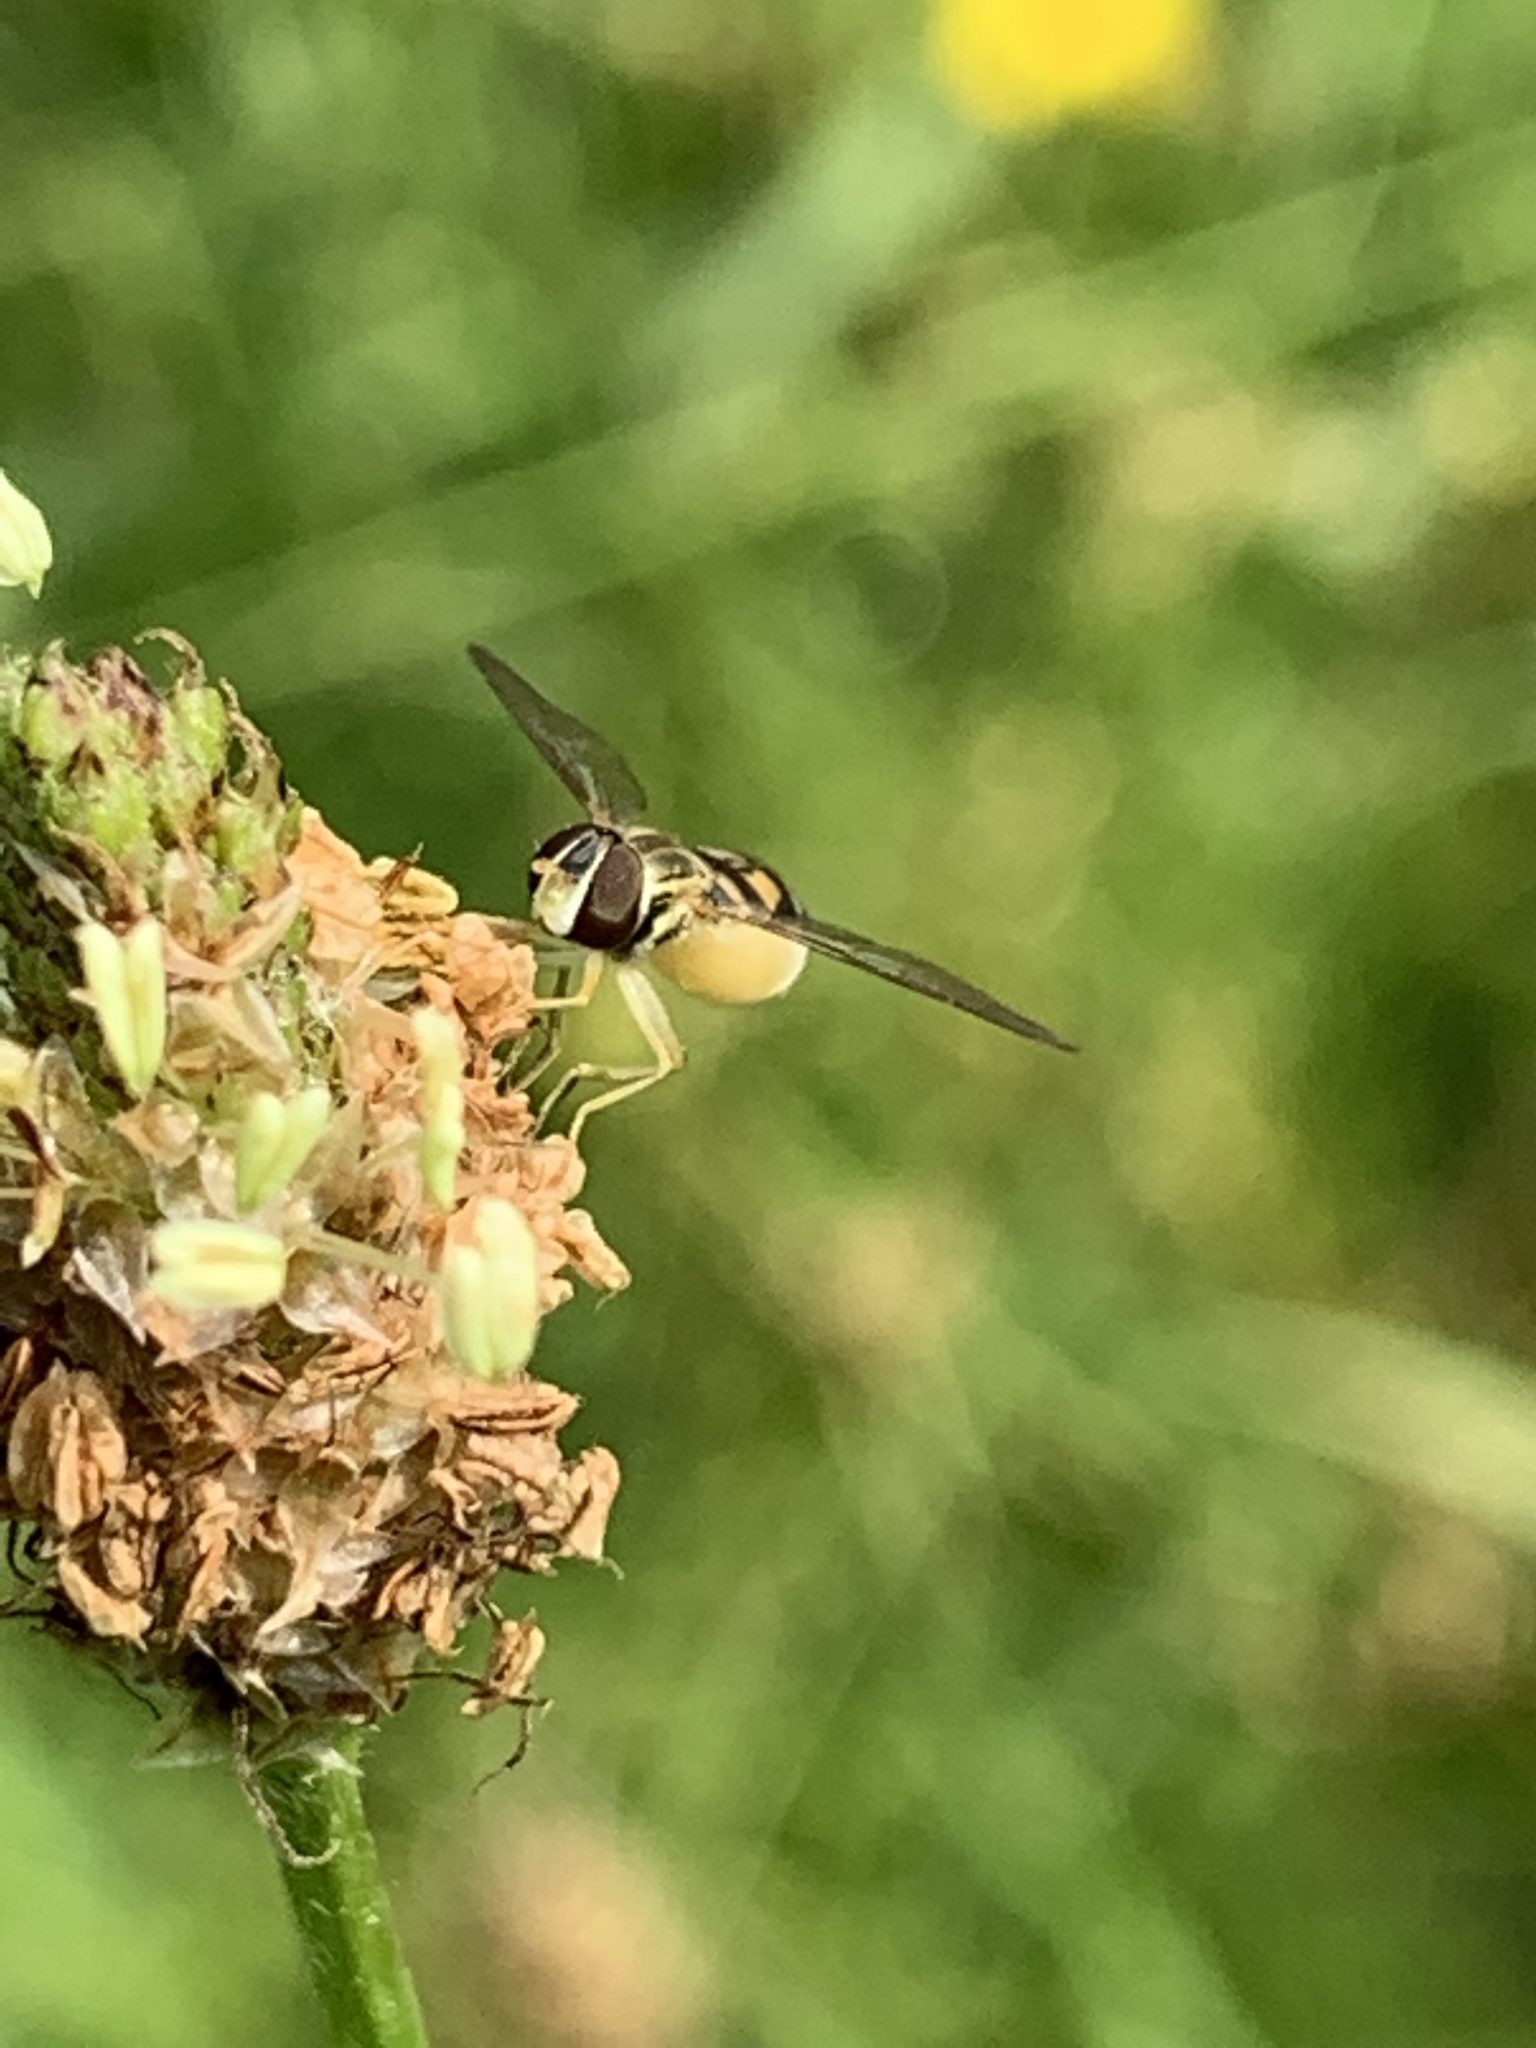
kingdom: Animalia
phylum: Arthropoda
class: Insecta
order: Diptera
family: Syrphidae
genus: Toxomerus
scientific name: Toxomerus marginatus
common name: Syrphid fly
